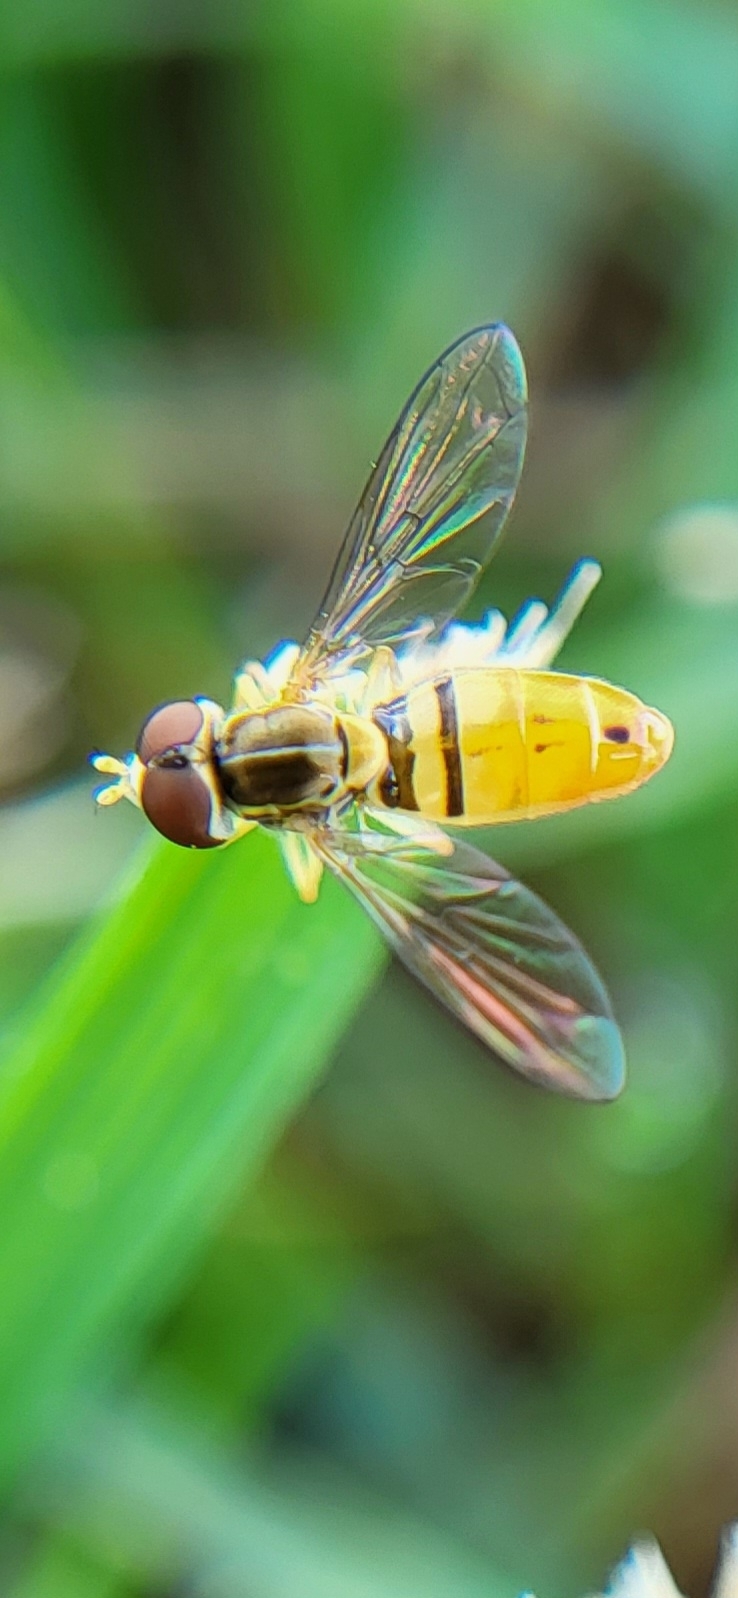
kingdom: Animalia
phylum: Arthropoda
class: Insecta
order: Diptera
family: Syrphidae
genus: Toxomerus
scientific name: Toxomerus marginatus
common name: Syrphid fly
